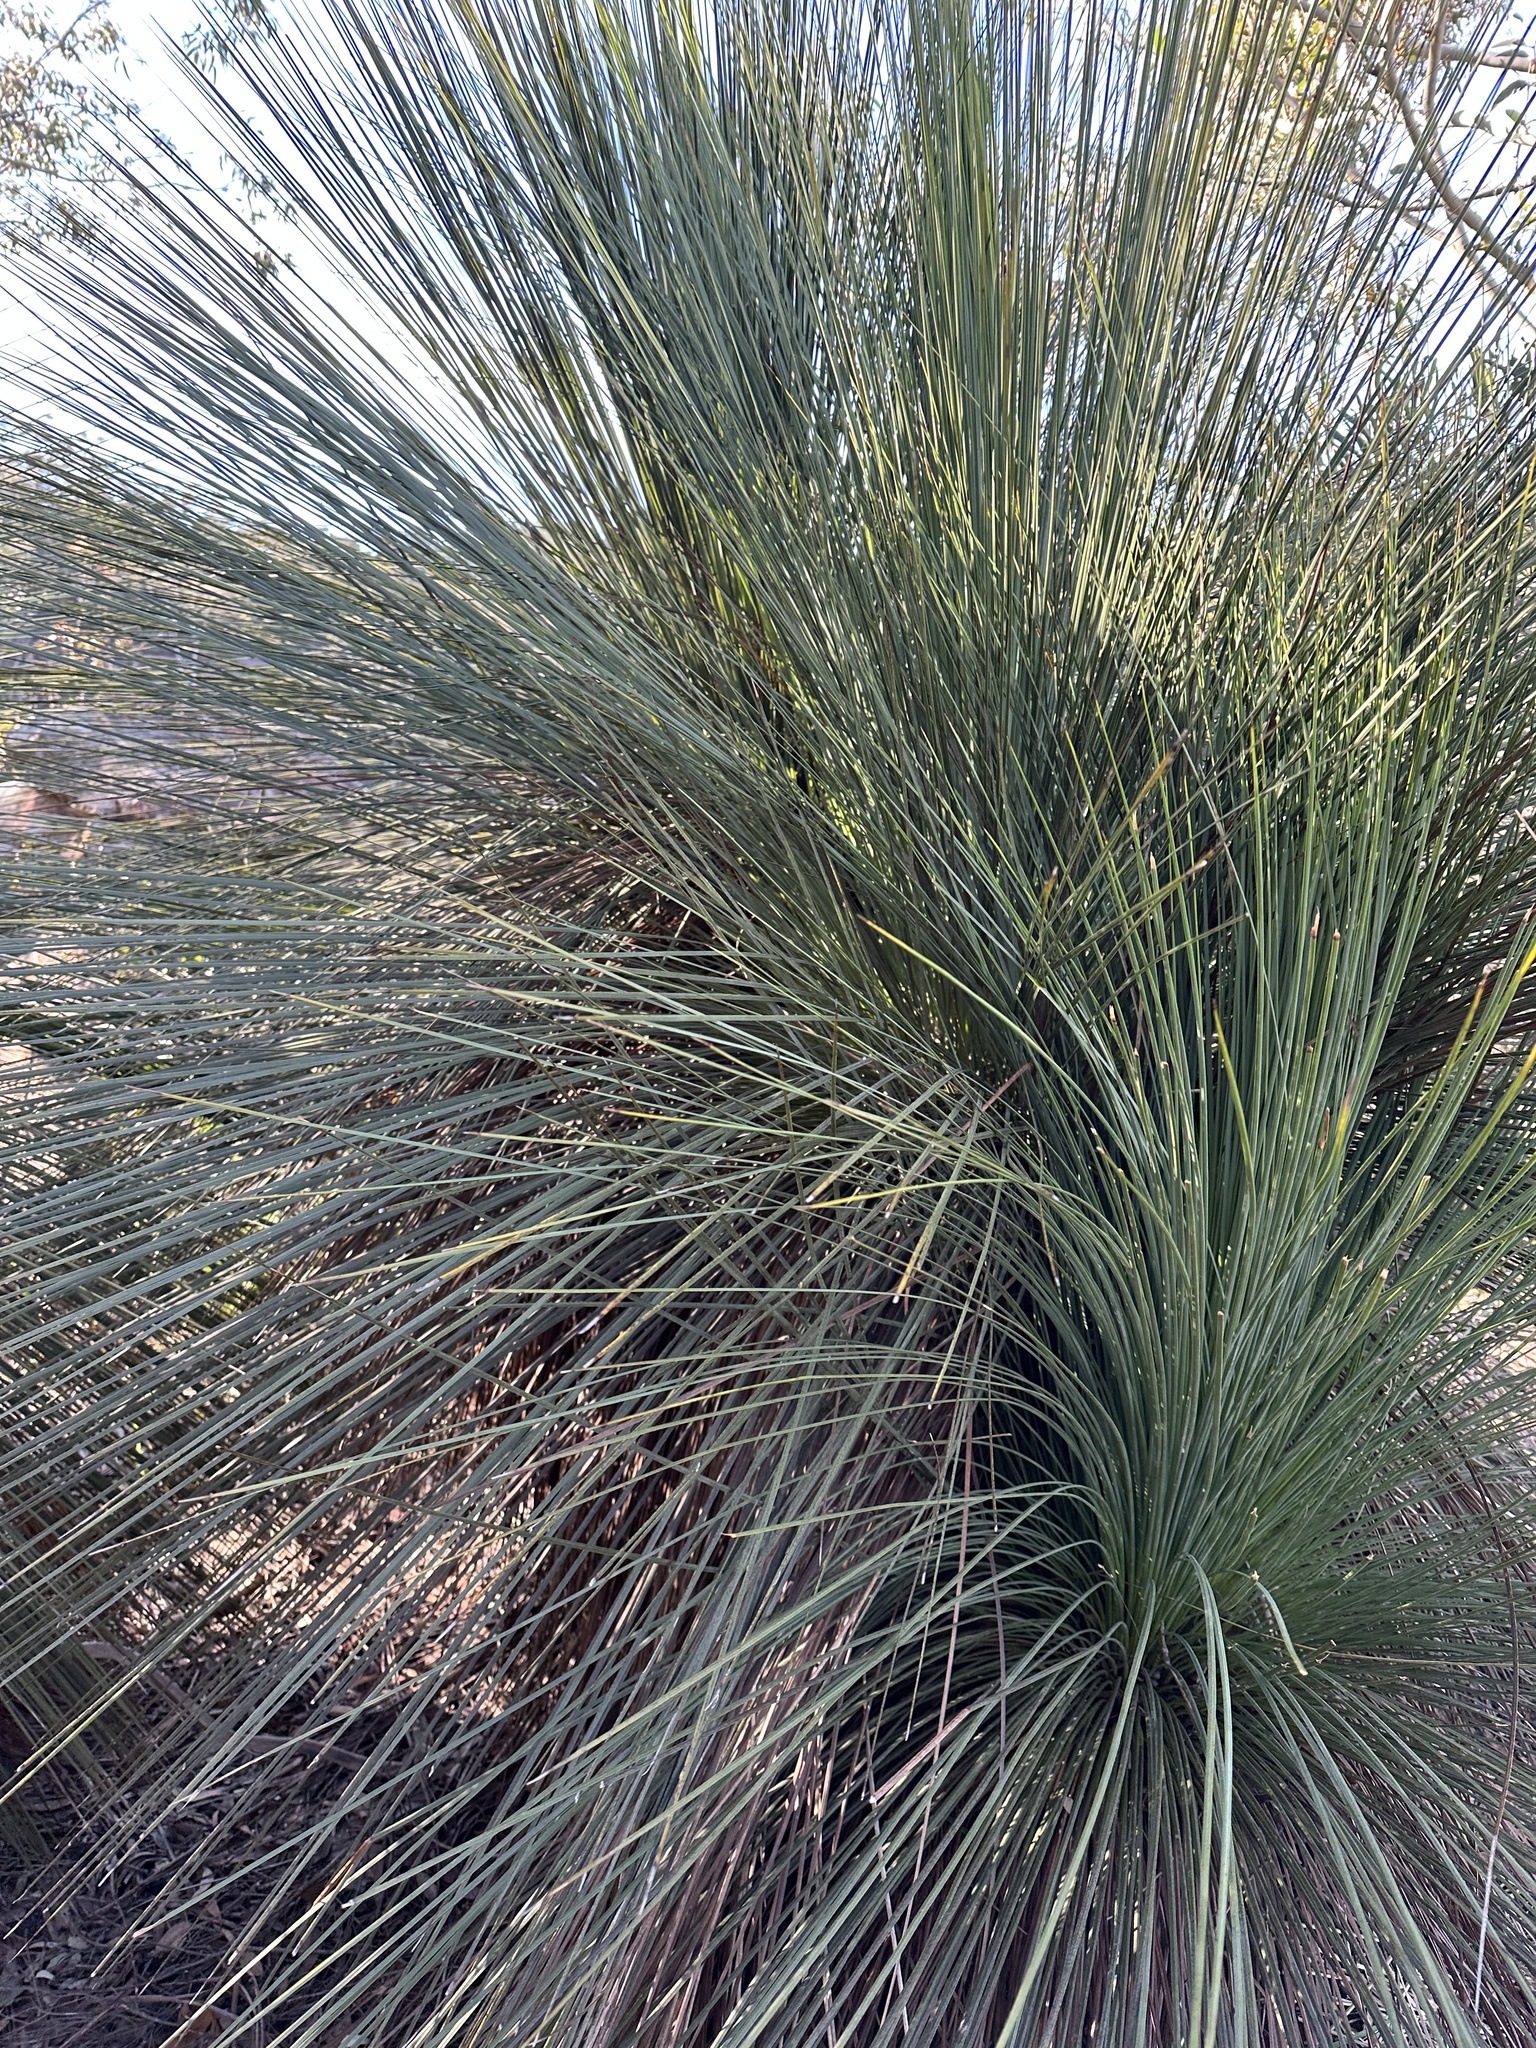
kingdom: Plantae
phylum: Tracheophyta
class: Liliopsida
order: Asparagales
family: Asphodelaceae
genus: Xanthorrhoea
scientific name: Xanthorrhoea glauca
